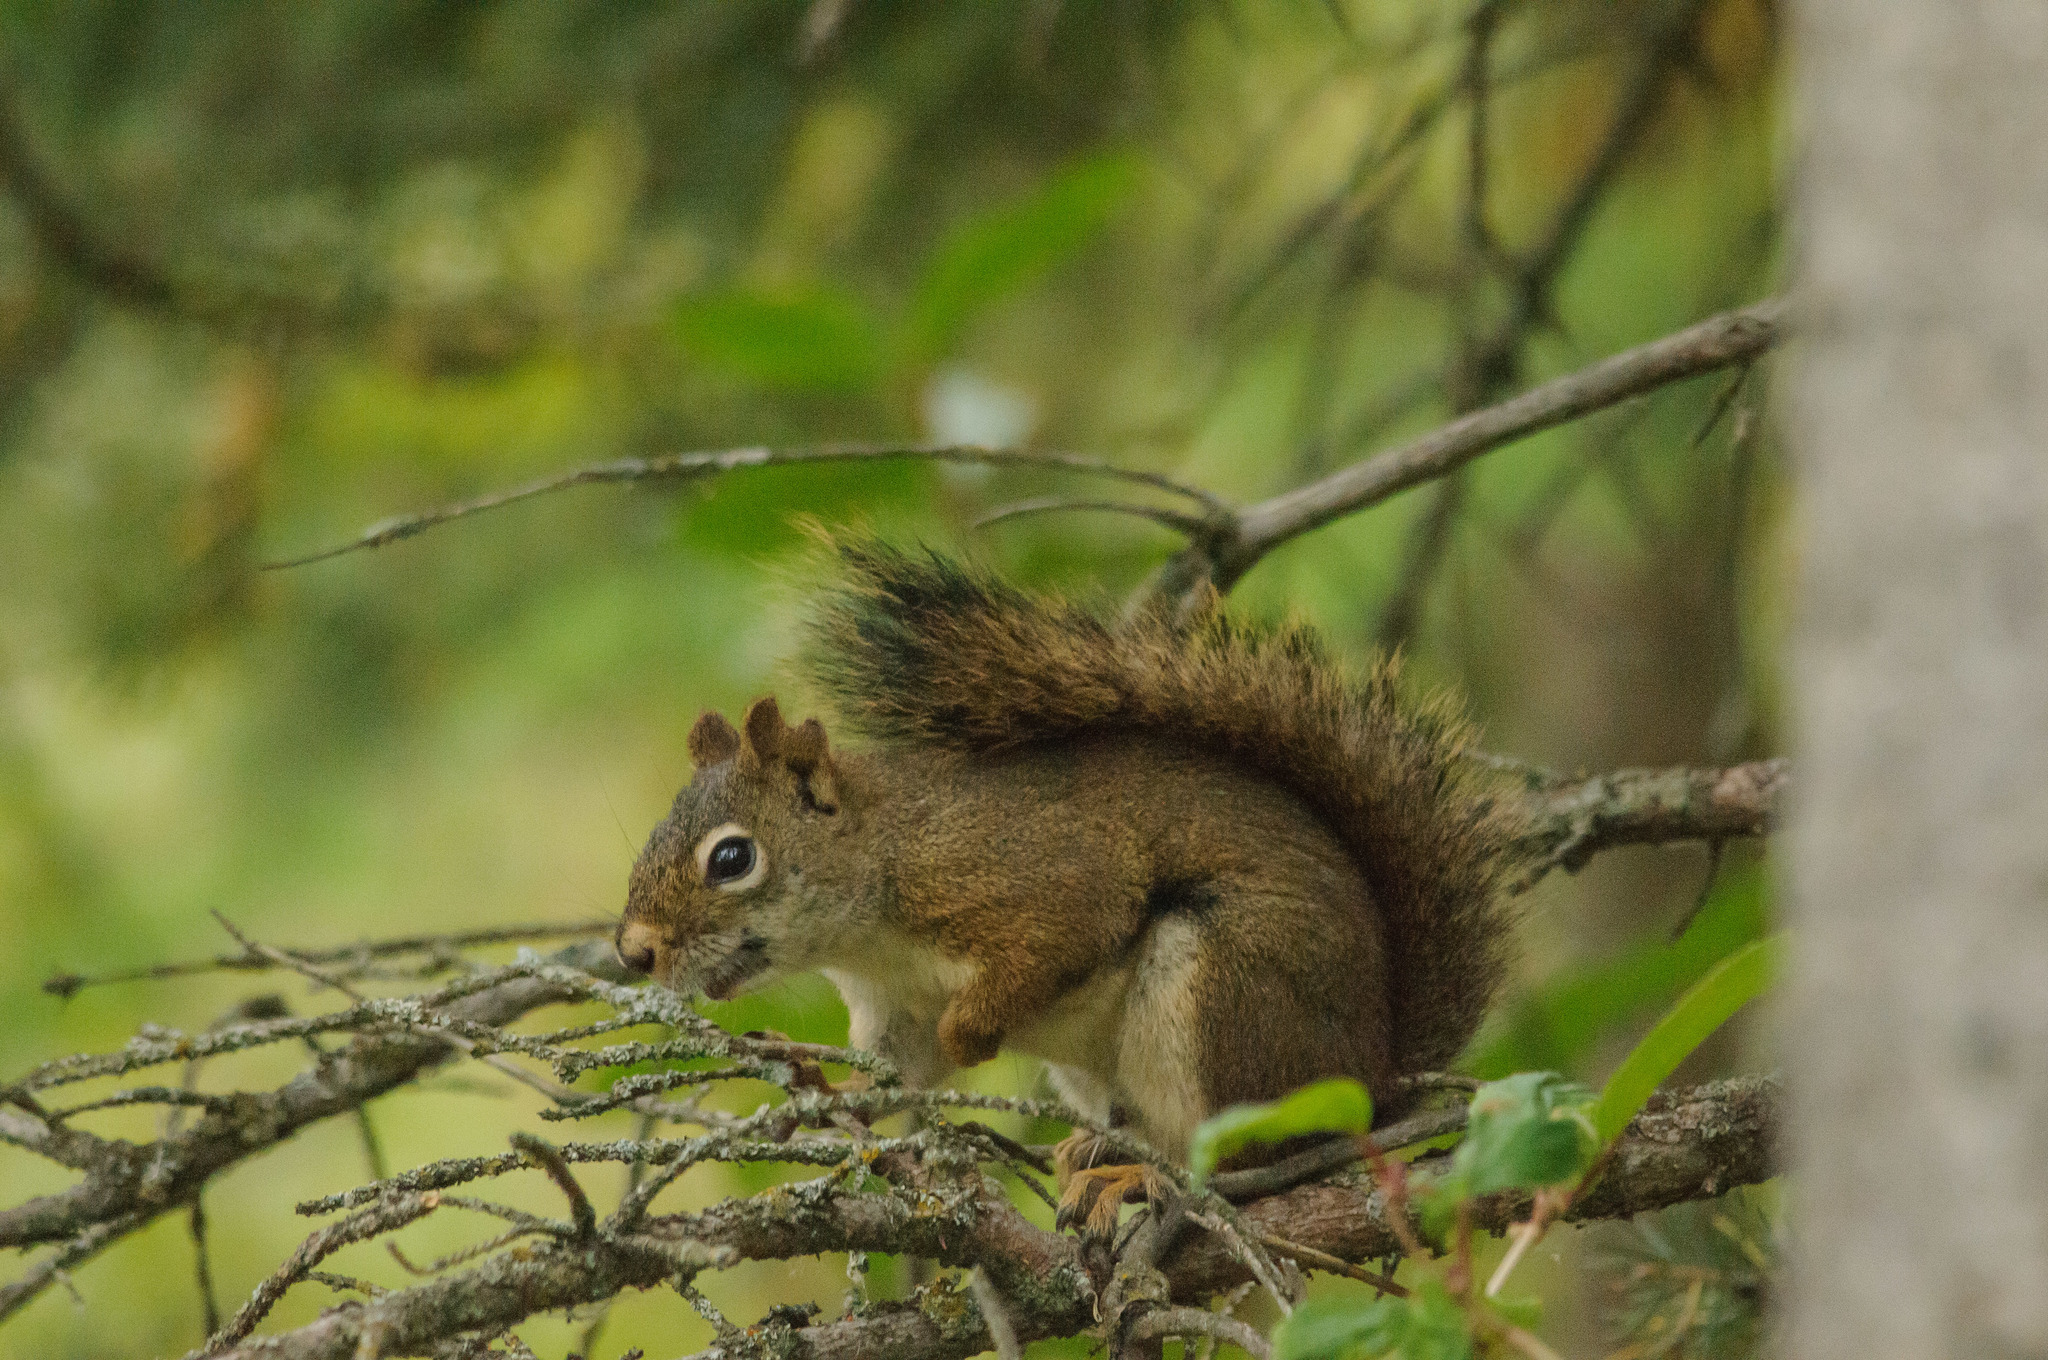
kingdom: Animalia
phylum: Chordata
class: Mammalia
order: Rodentia
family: Sciuridae
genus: Tamiasciurus
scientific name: Tamiasciurus hudsonicus
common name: Red squirrel
